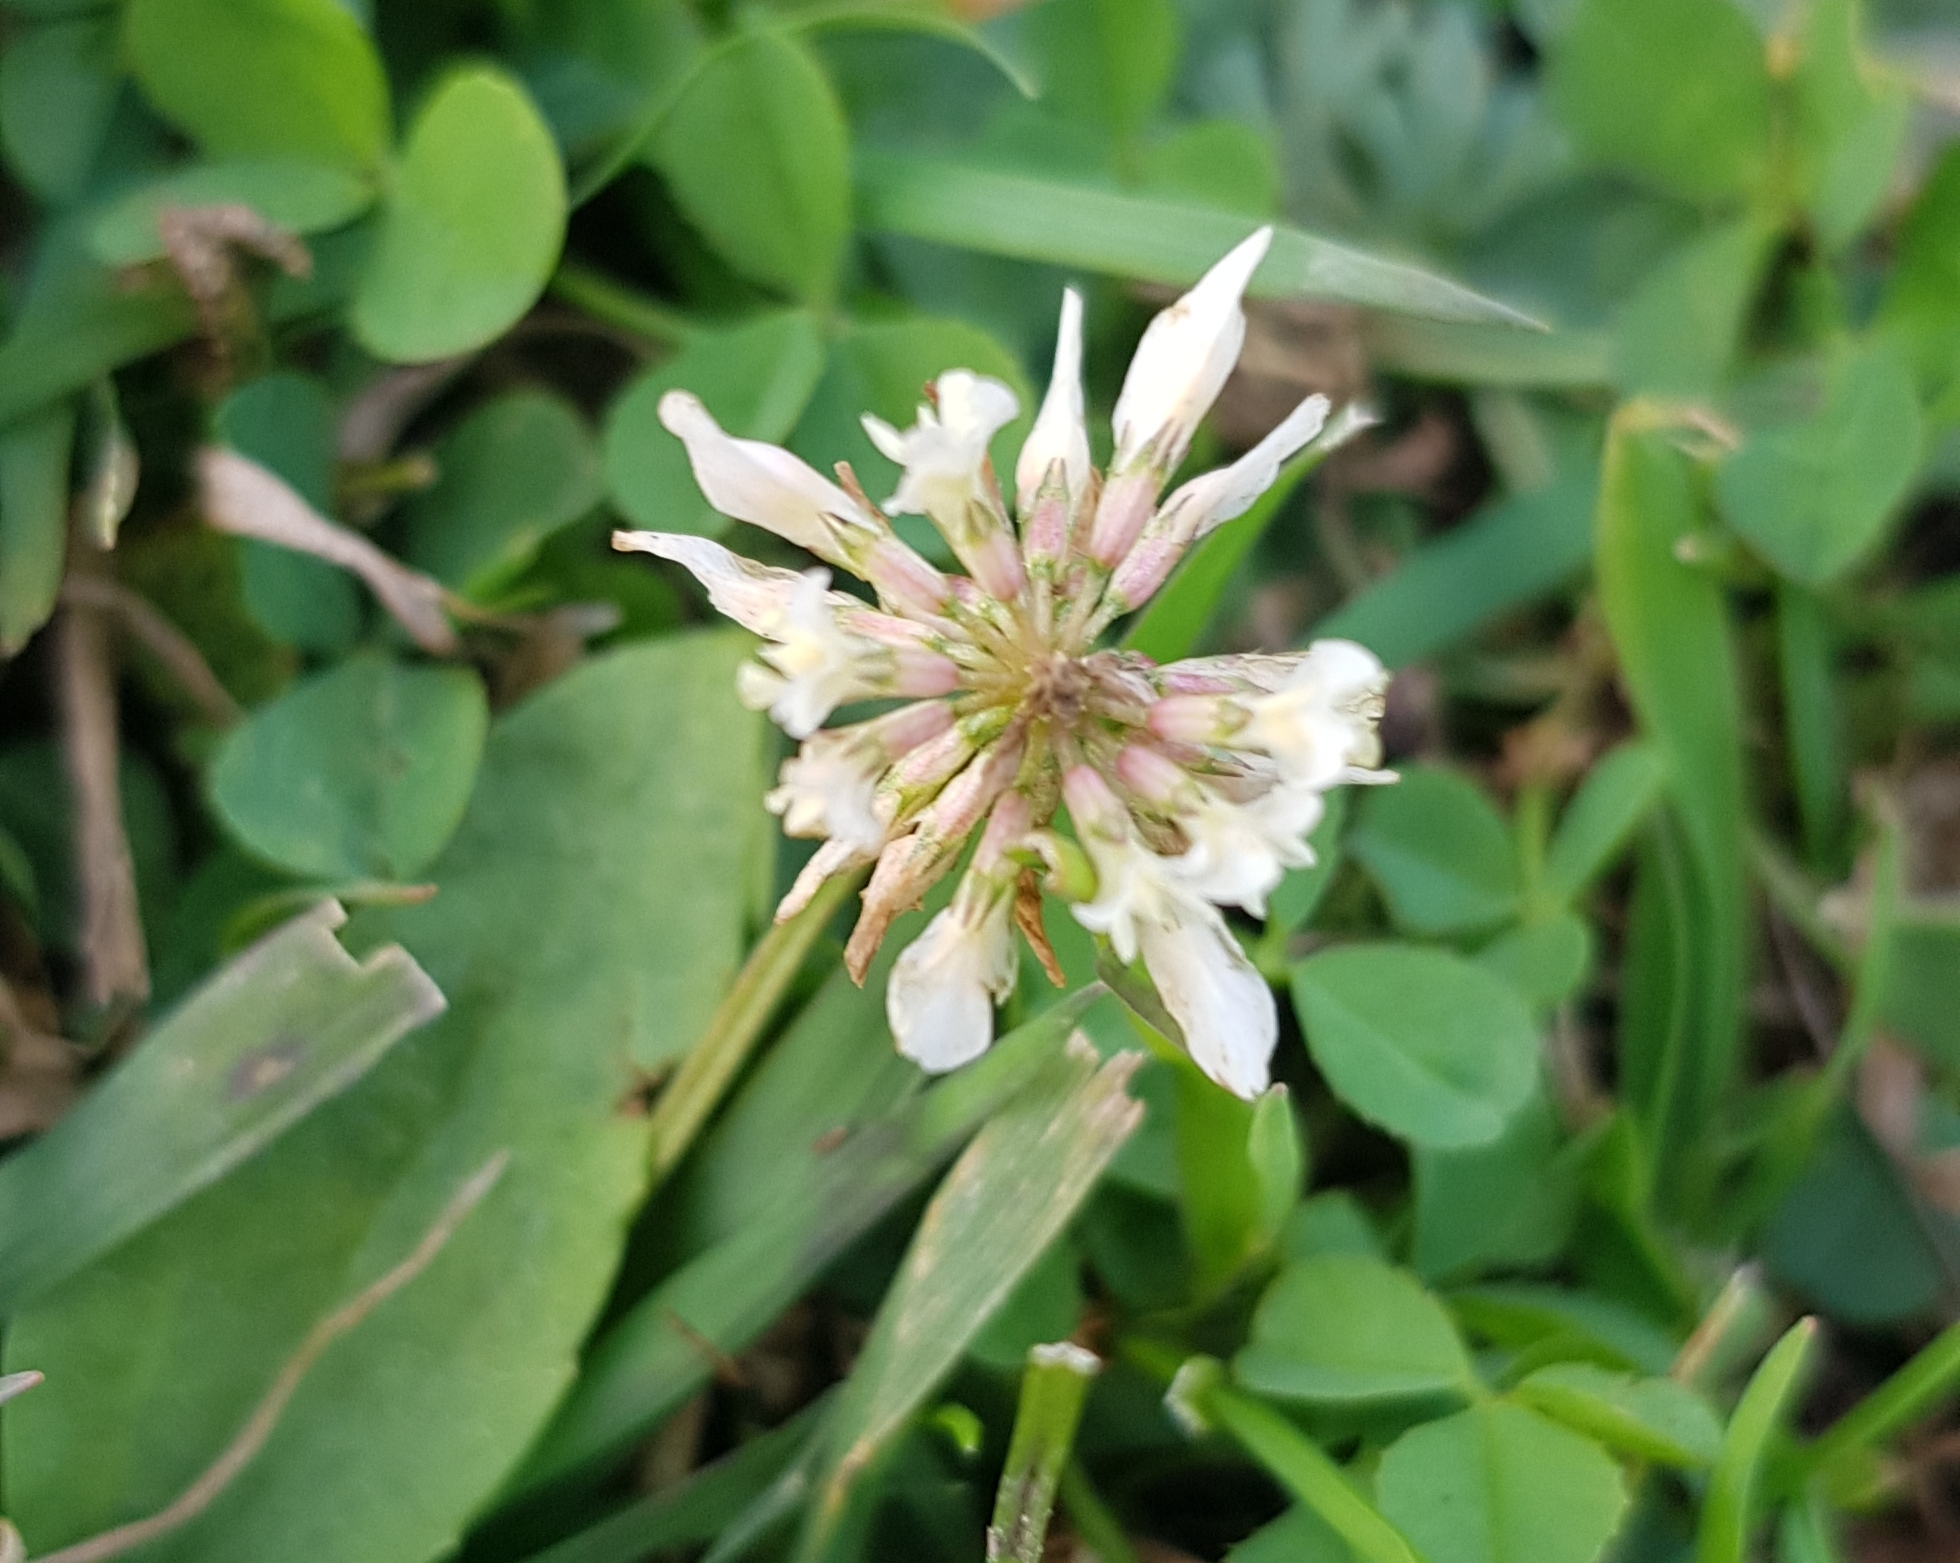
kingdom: Plantae
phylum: Tracheophyta
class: Magnoliopsida
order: Fabales
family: Fabaceae
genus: Trifolium
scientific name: Trifolium repens
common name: White clover
